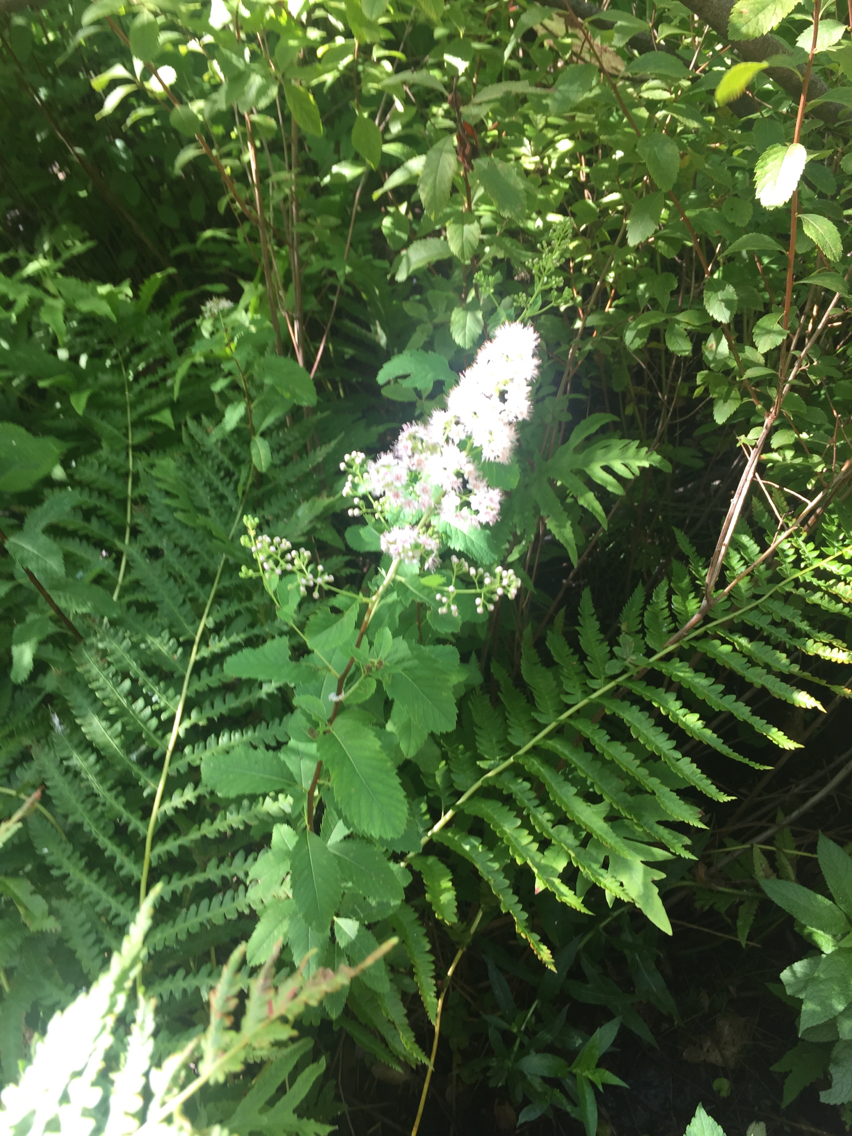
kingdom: Plantae
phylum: Tracheophyta
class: Magnoliopsida
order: Rosales
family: Rosaceae
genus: Spiraea
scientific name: Spiraea alba
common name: Pale bridewort
